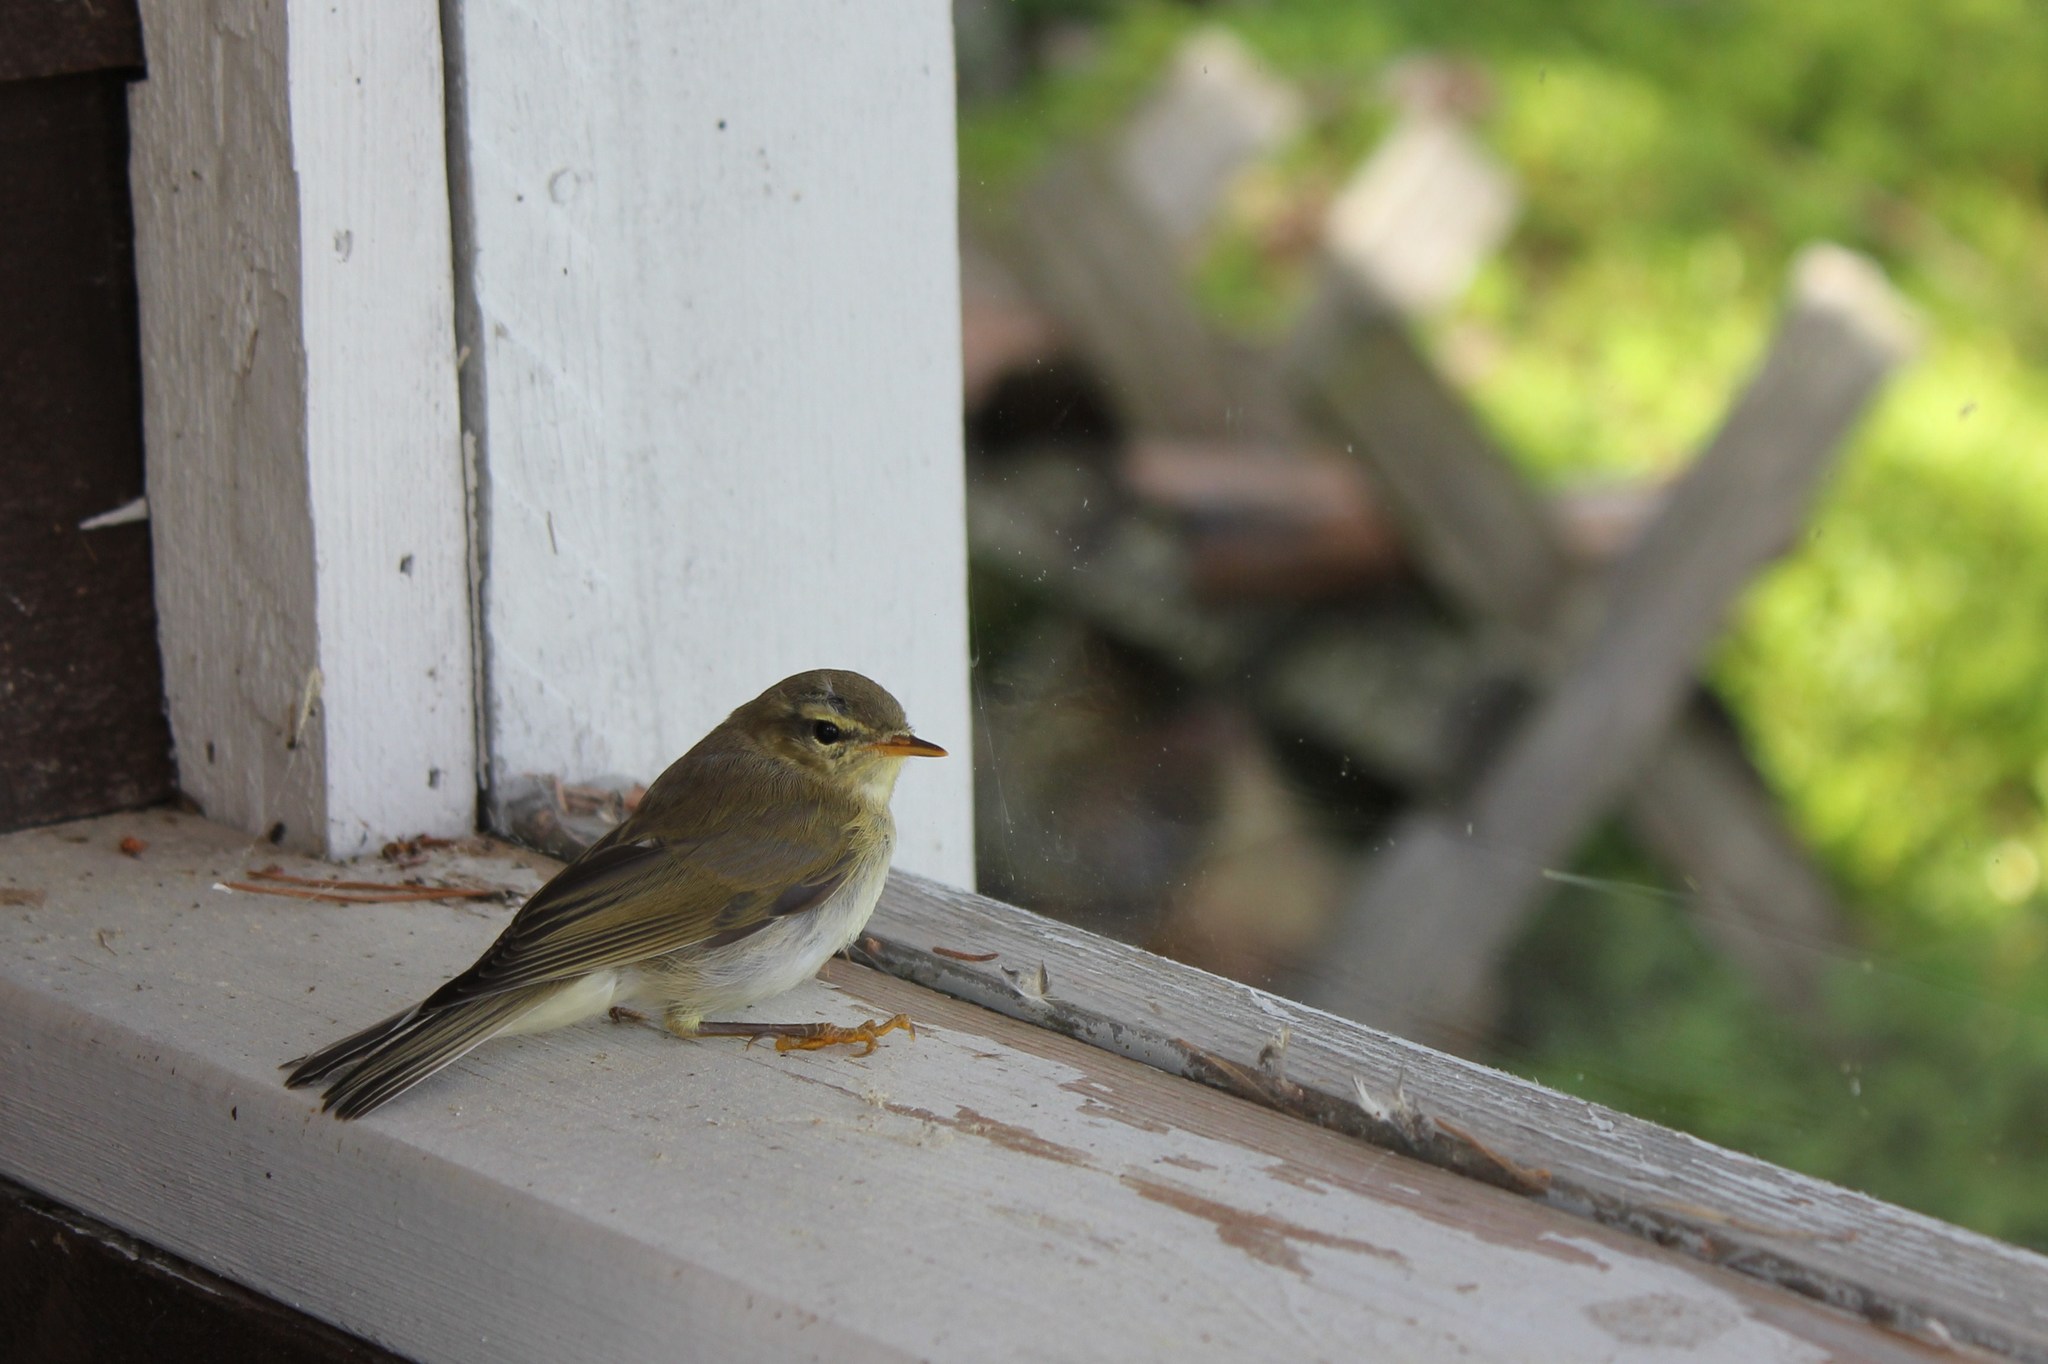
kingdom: Animalia
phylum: Chordata
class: Aves
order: Passeriformes
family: Phylloscopidae
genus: Phylloscopus
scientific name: Phylloscopus trochilus
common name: Willow warbler
